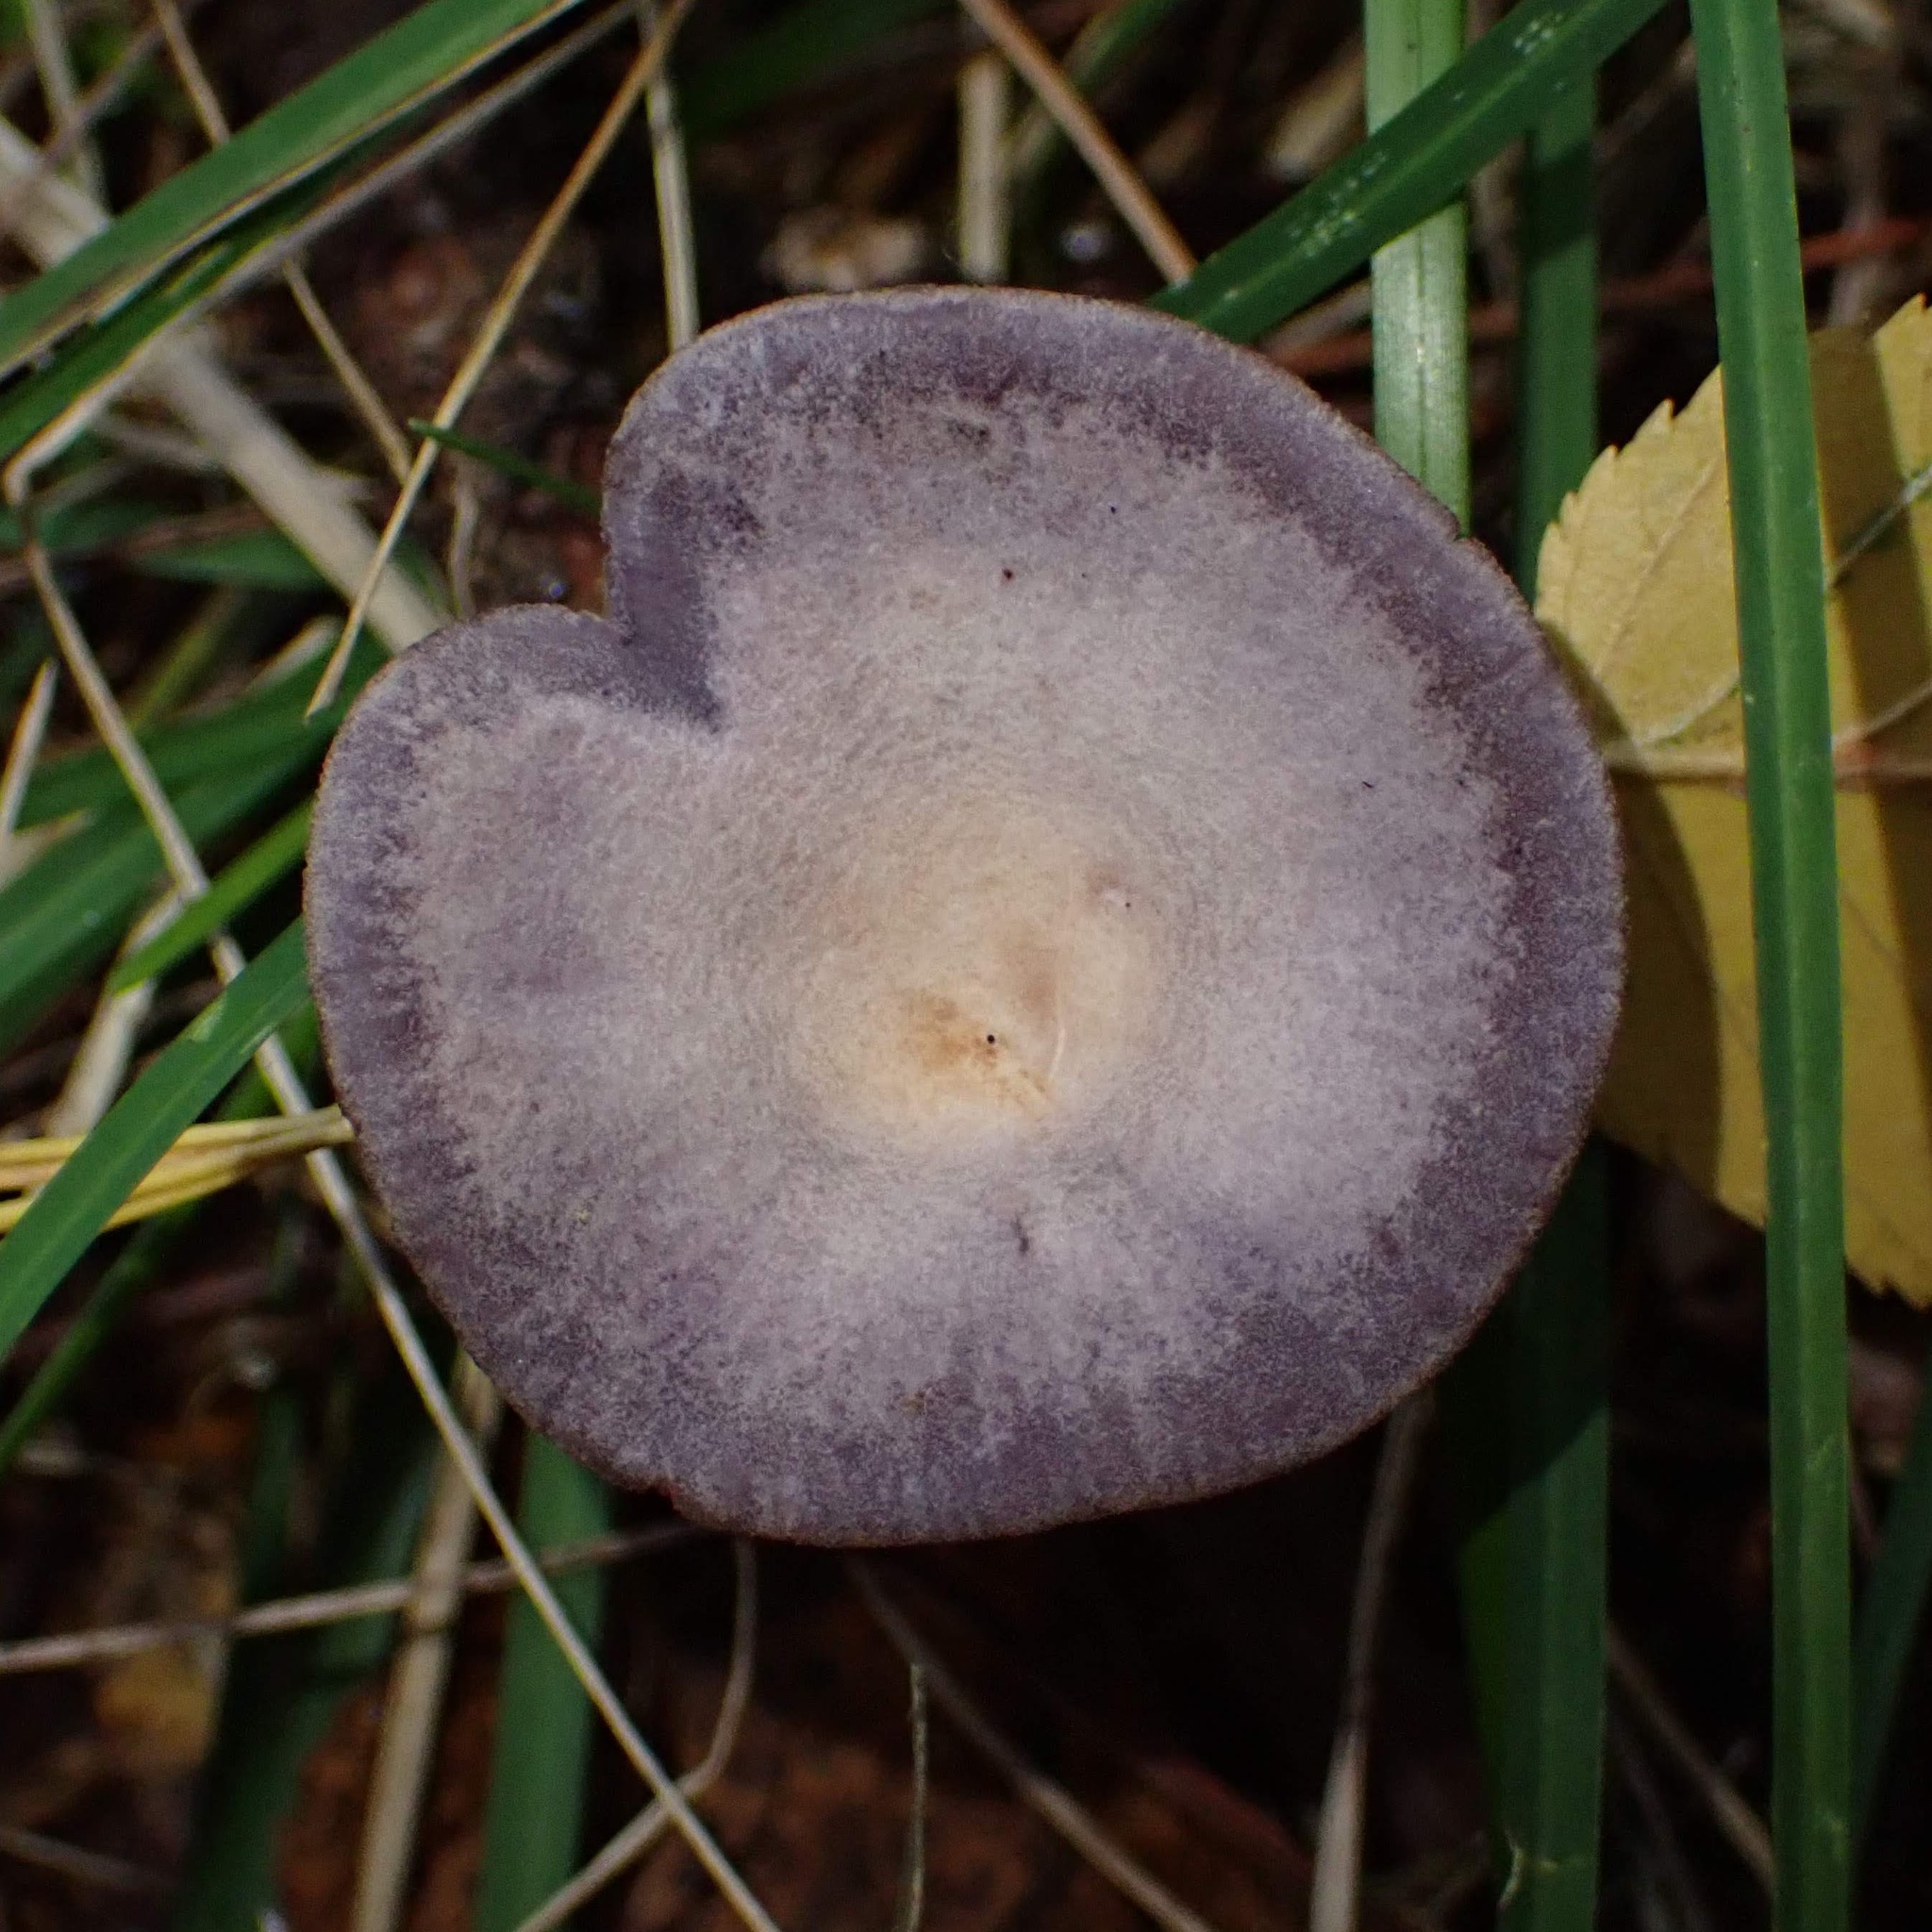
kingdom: Fungi
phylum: Basidiomycota
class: Agaricomycetes
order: Agaricales
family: Hydnangiaceae
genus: Laccaria
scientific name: Laccaria amethystina
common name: Amethyst deceiver
